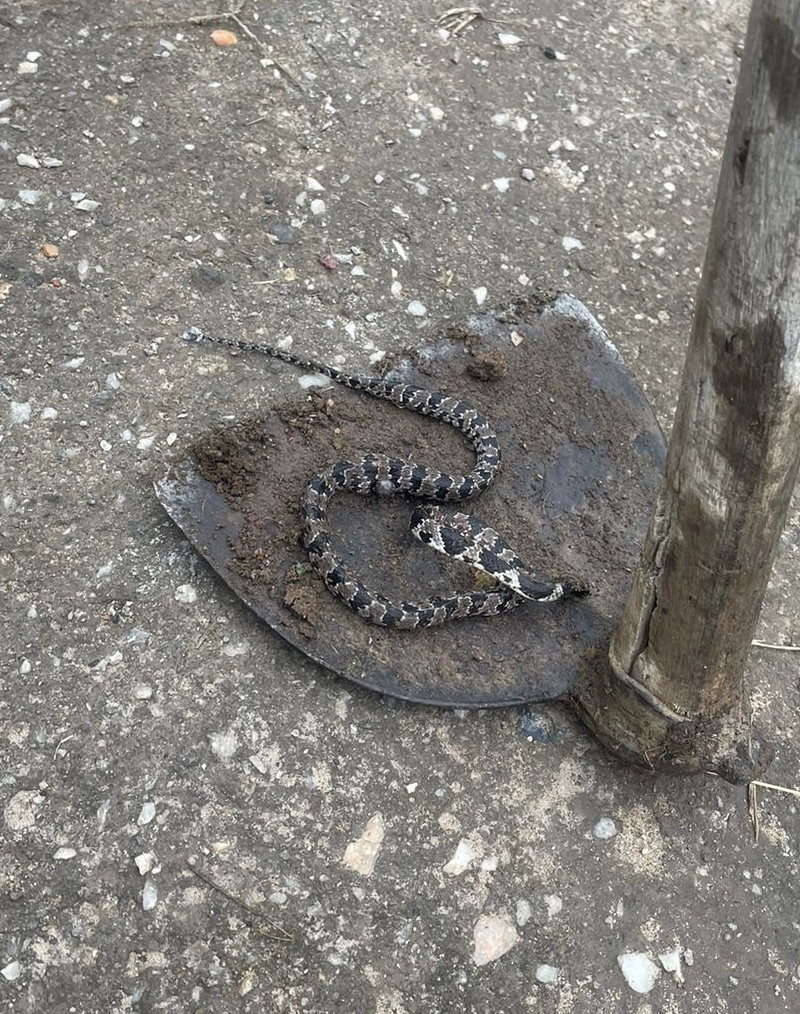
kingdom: Animalia
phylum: Chordata
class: Squamata
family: Colubridae
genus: Dipsas
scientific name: Dipsas mikanii
